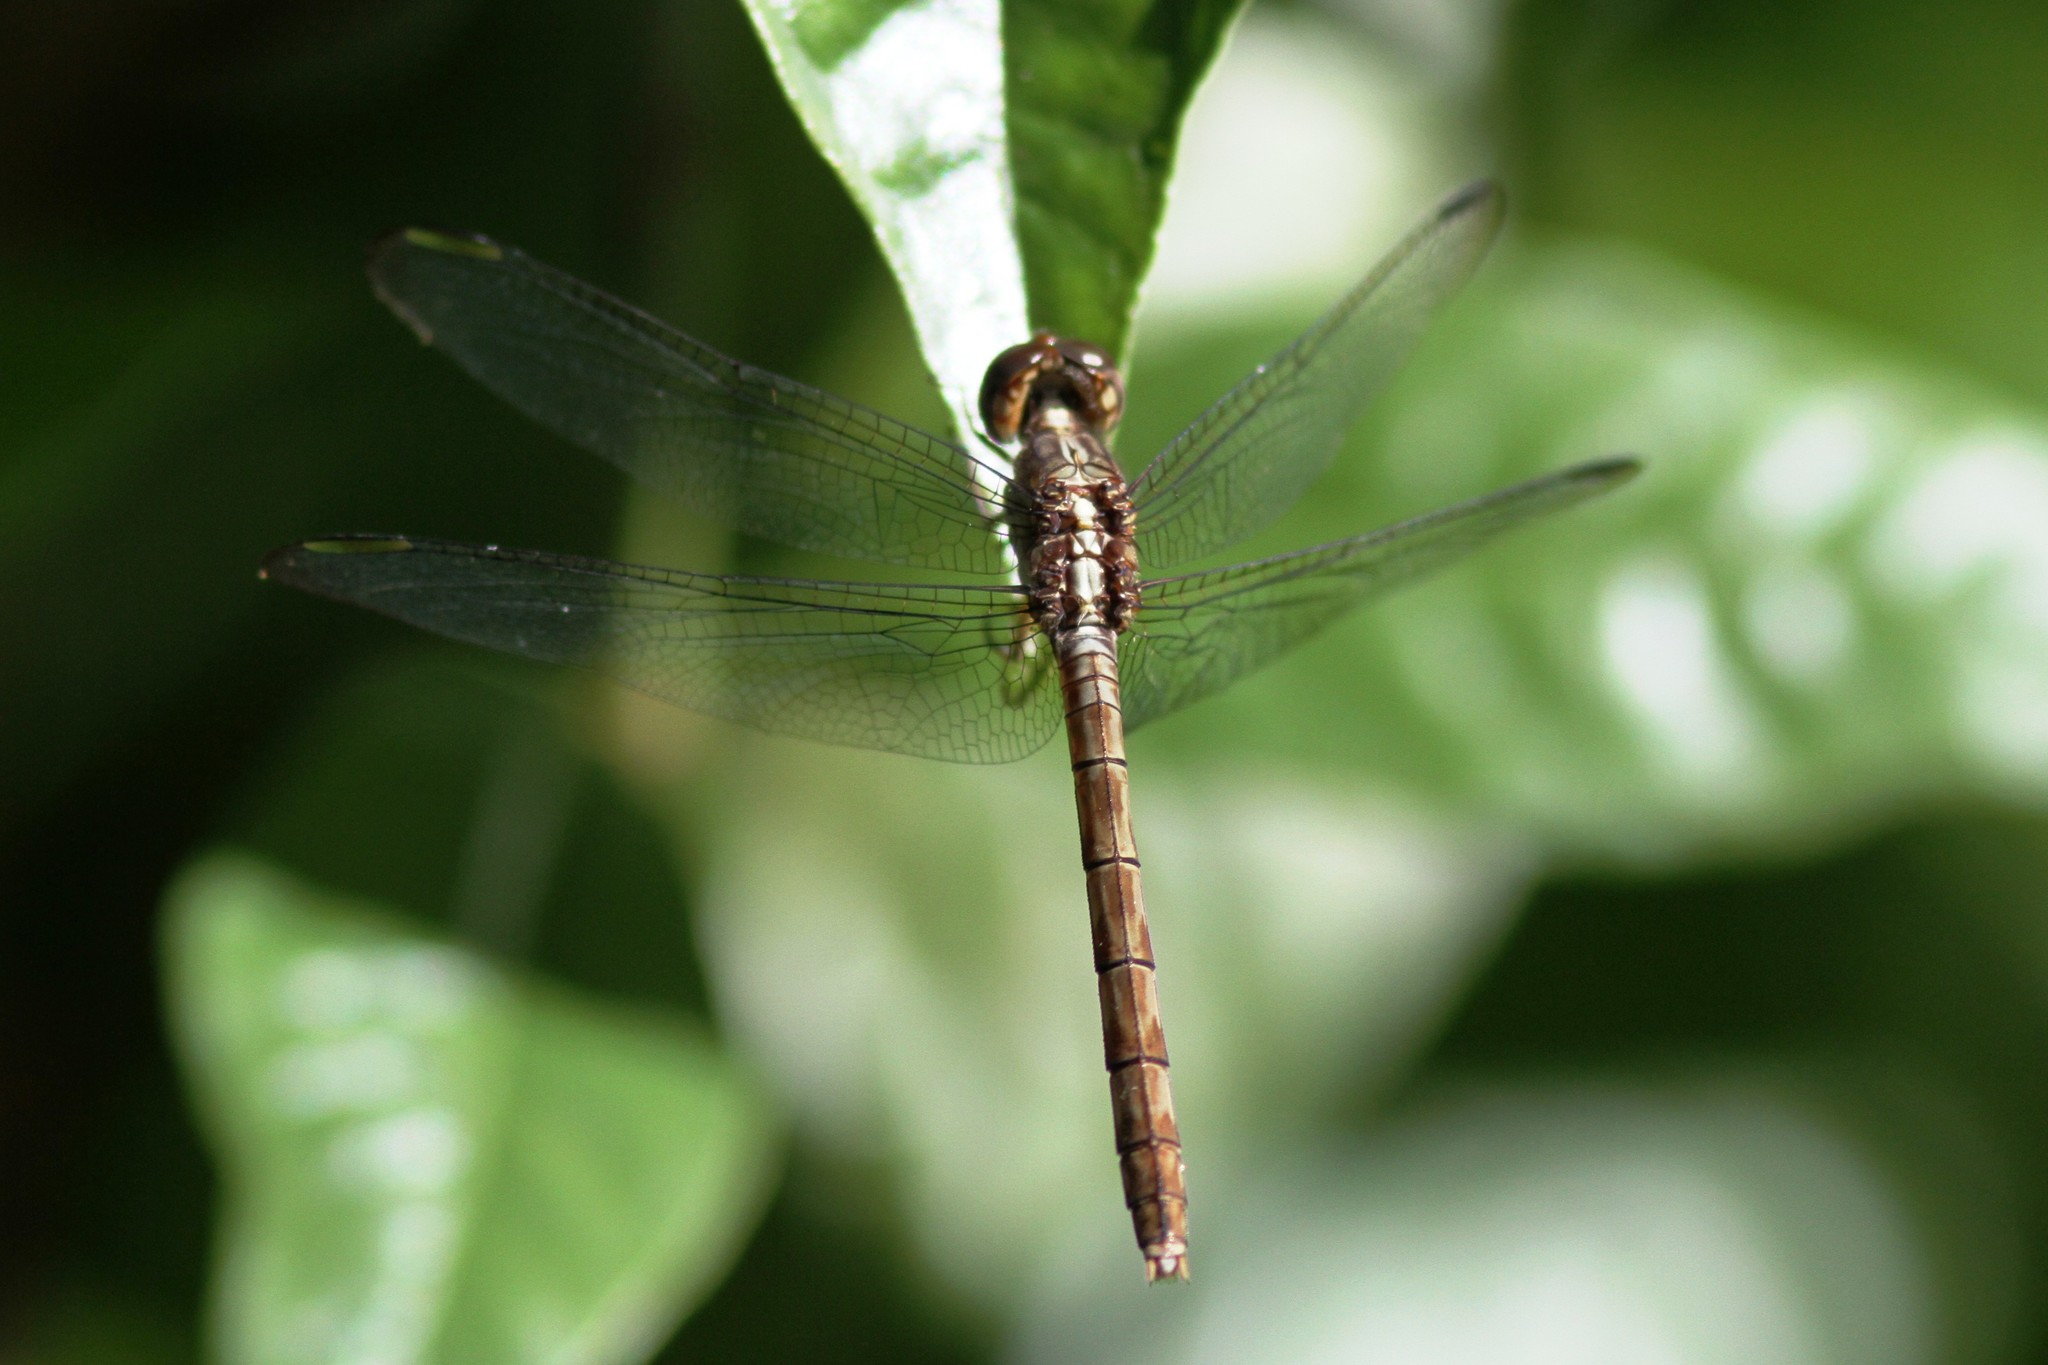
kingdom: Animalia
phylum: Arthropoda
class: Insecta
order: Odonata
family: Libellulidae
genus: Erythrodiplax
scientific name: Erythrodiplax umbrata
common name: Band-winged dragonlet
